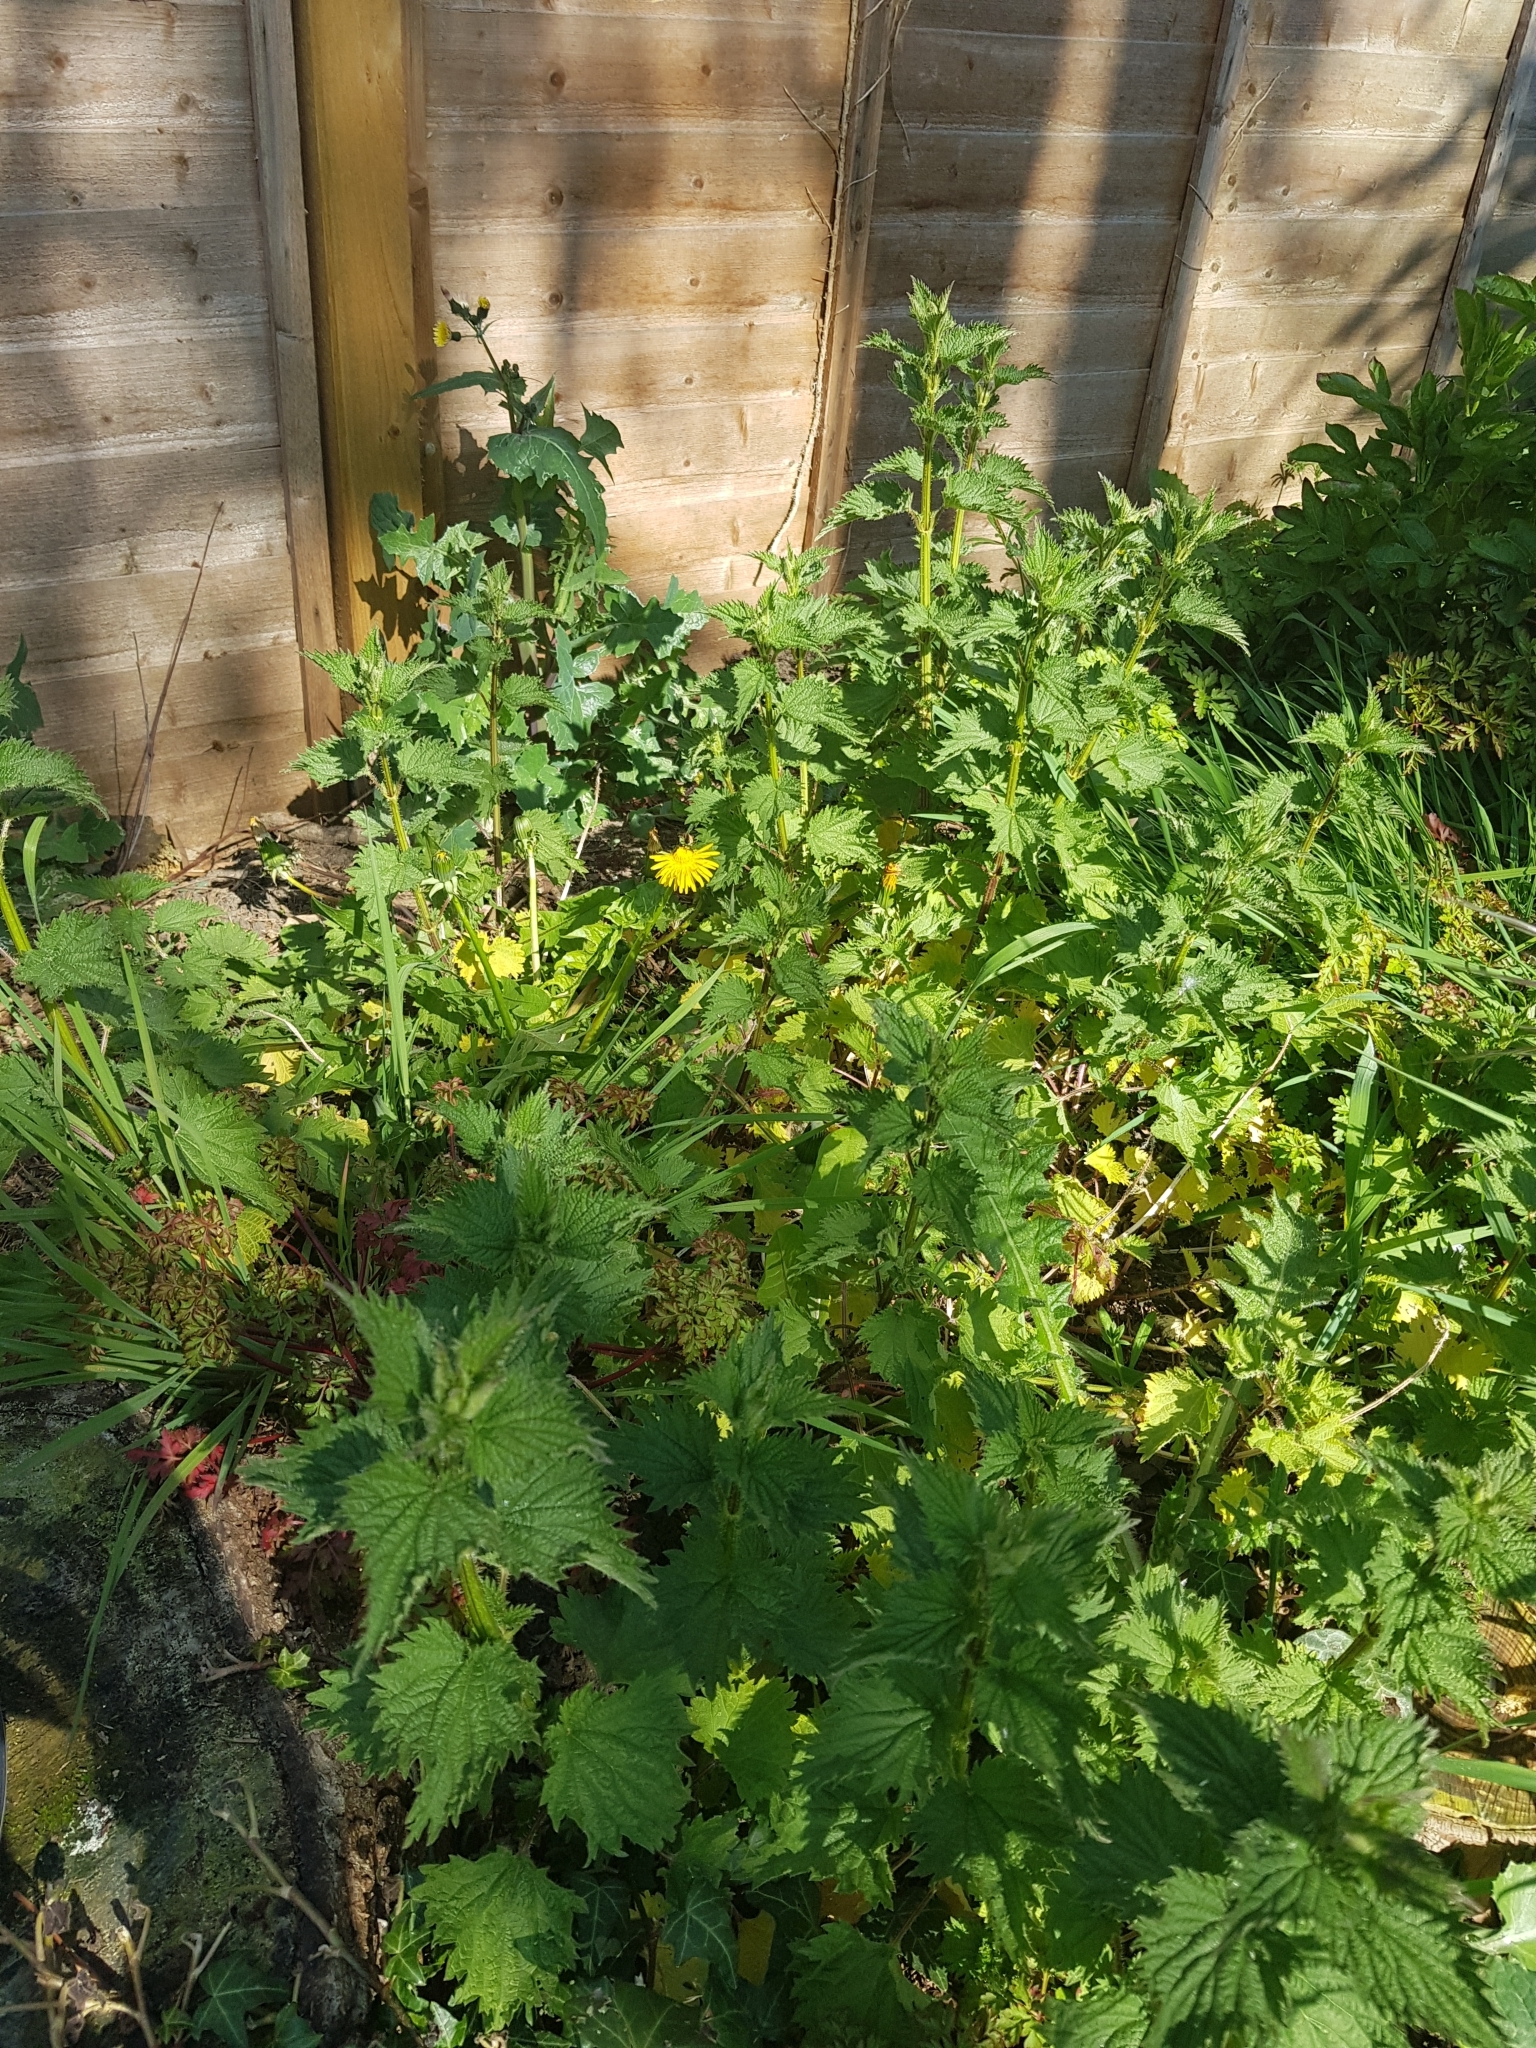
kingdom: Plantae
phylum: Tracheophyta
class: Magnoliopsida
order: Rosales
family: Urticaceae
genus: Urtica
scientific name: Urtica dioica
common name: Common nettle
